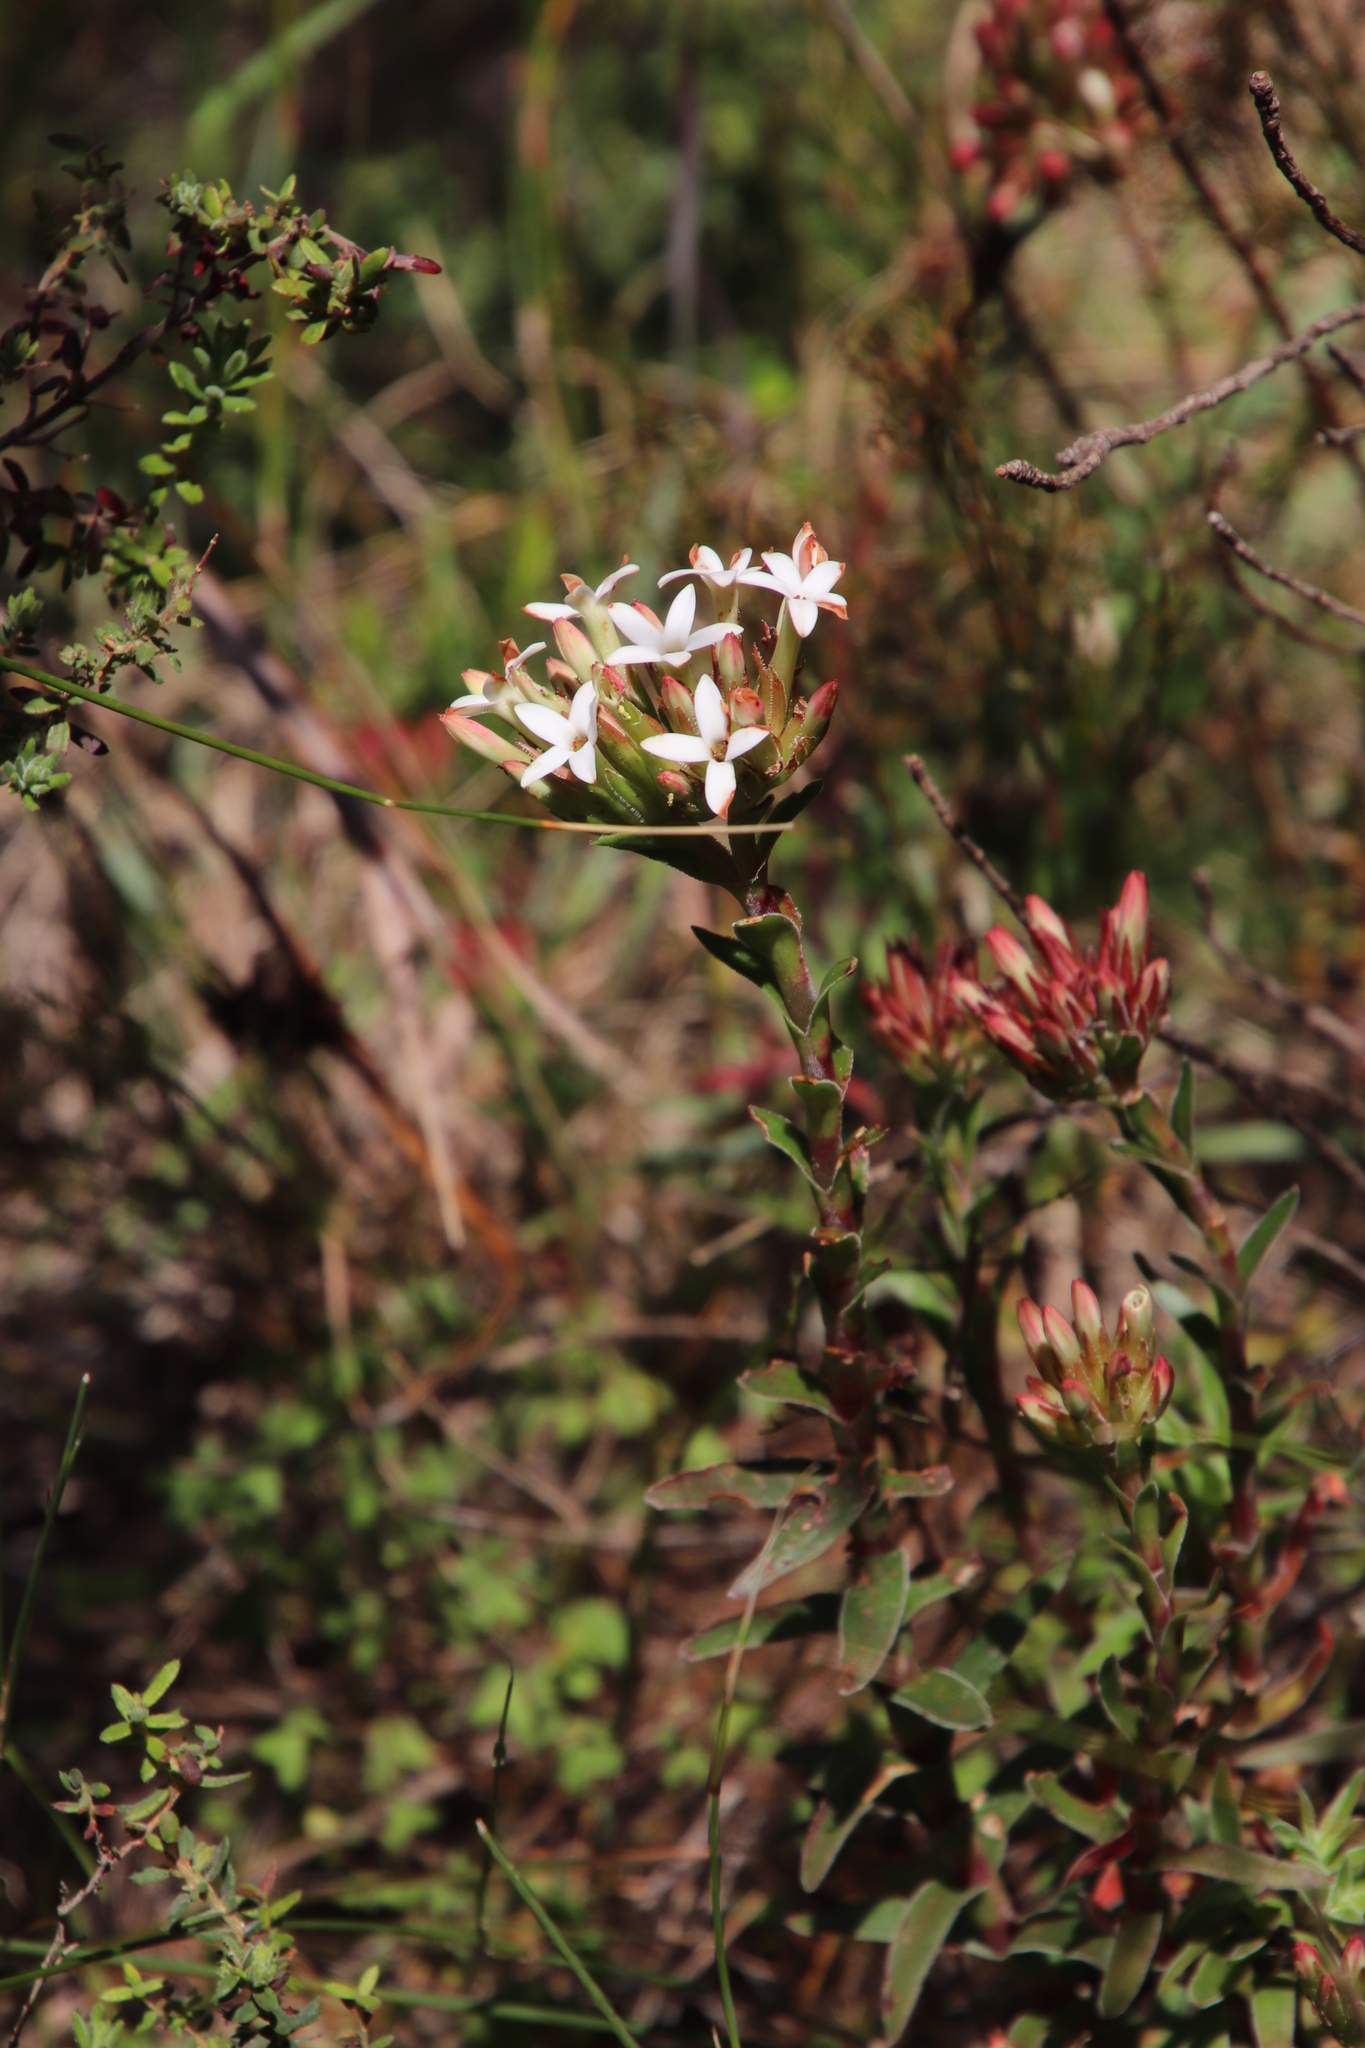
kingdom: Plantae
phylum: Tracheophyta
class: Magnoliopsida
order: Saxifragales
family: Crassulaceae
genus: Crassula
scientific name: Crassula fascicularis
